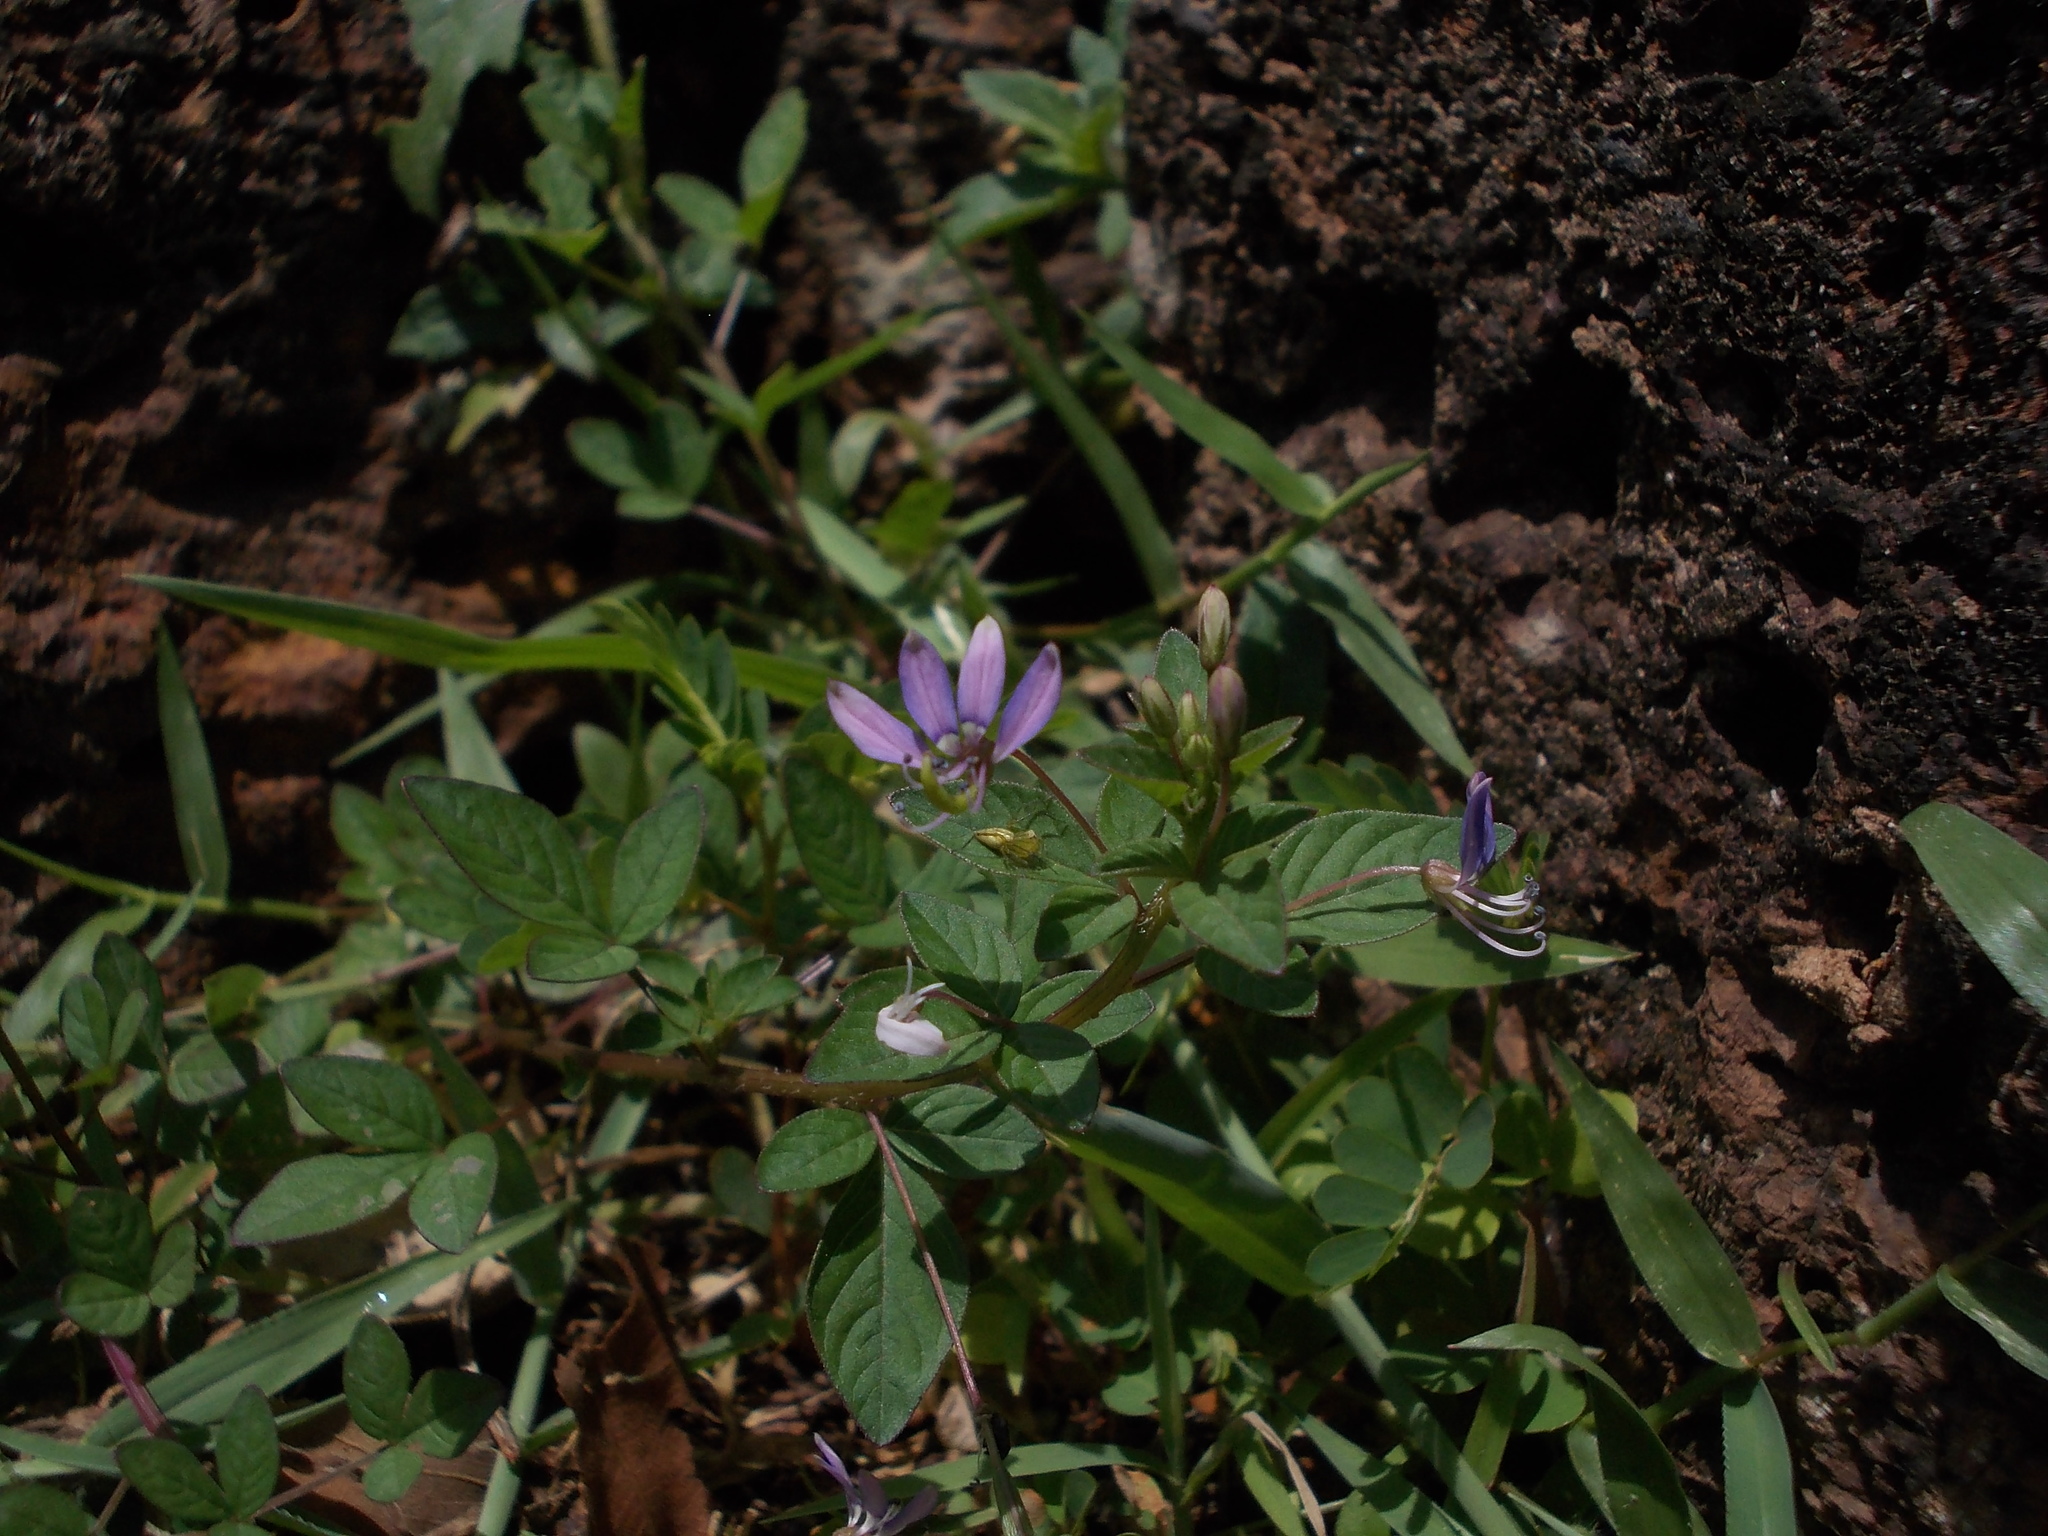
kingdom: Plantae
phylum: Tracheophyta
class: Magnoliopsida
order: Brassicales
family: Cleomaceae
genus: Sieruela
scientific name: Sieruela rutidosperma
